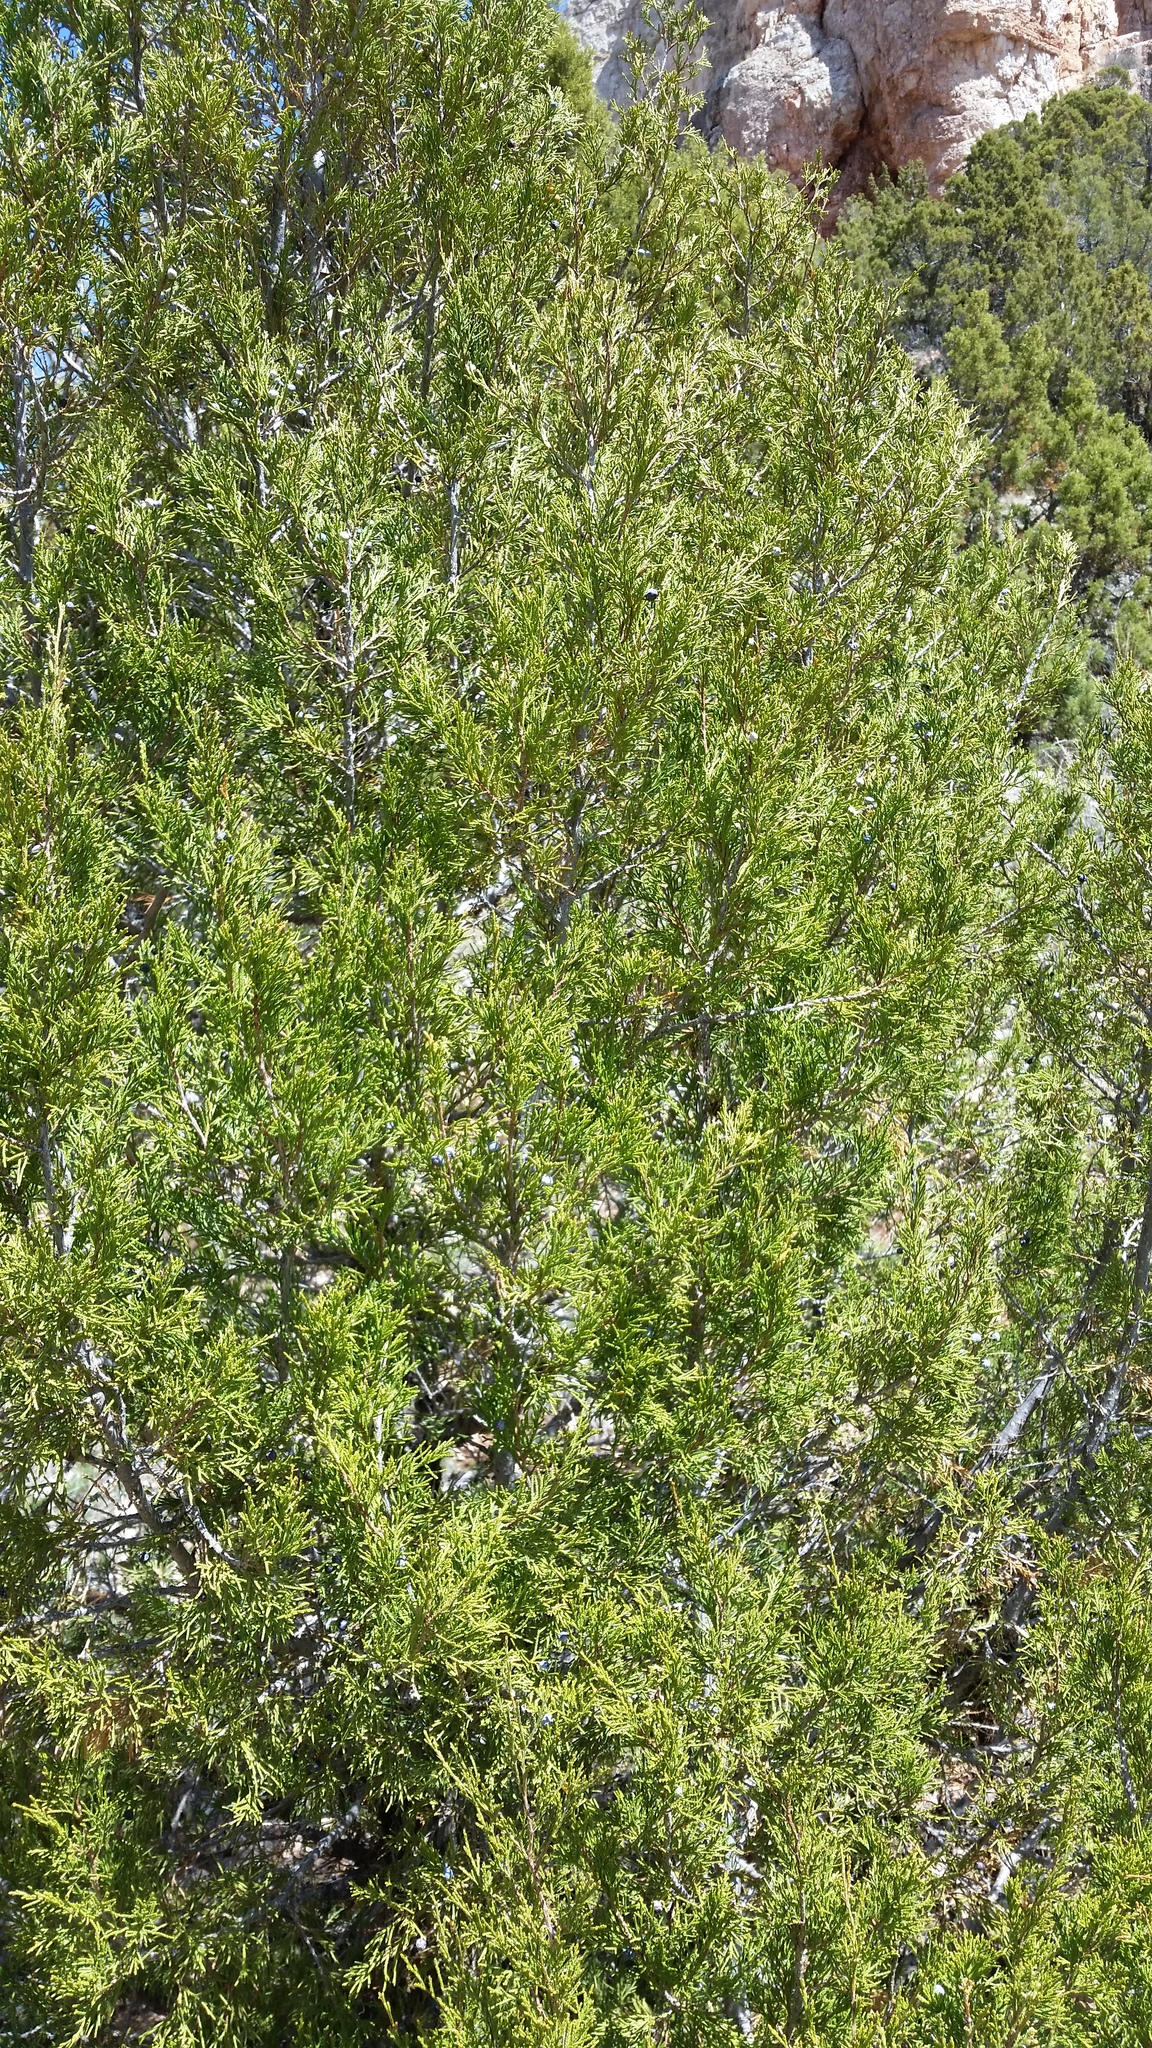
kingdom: Plantae
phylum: Tracheophyta
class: Pinopsida
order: Pinales
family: Cupressaceae
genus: Juniperus
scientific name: Juniperus scopulorum
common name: Rocky mountain juniper
